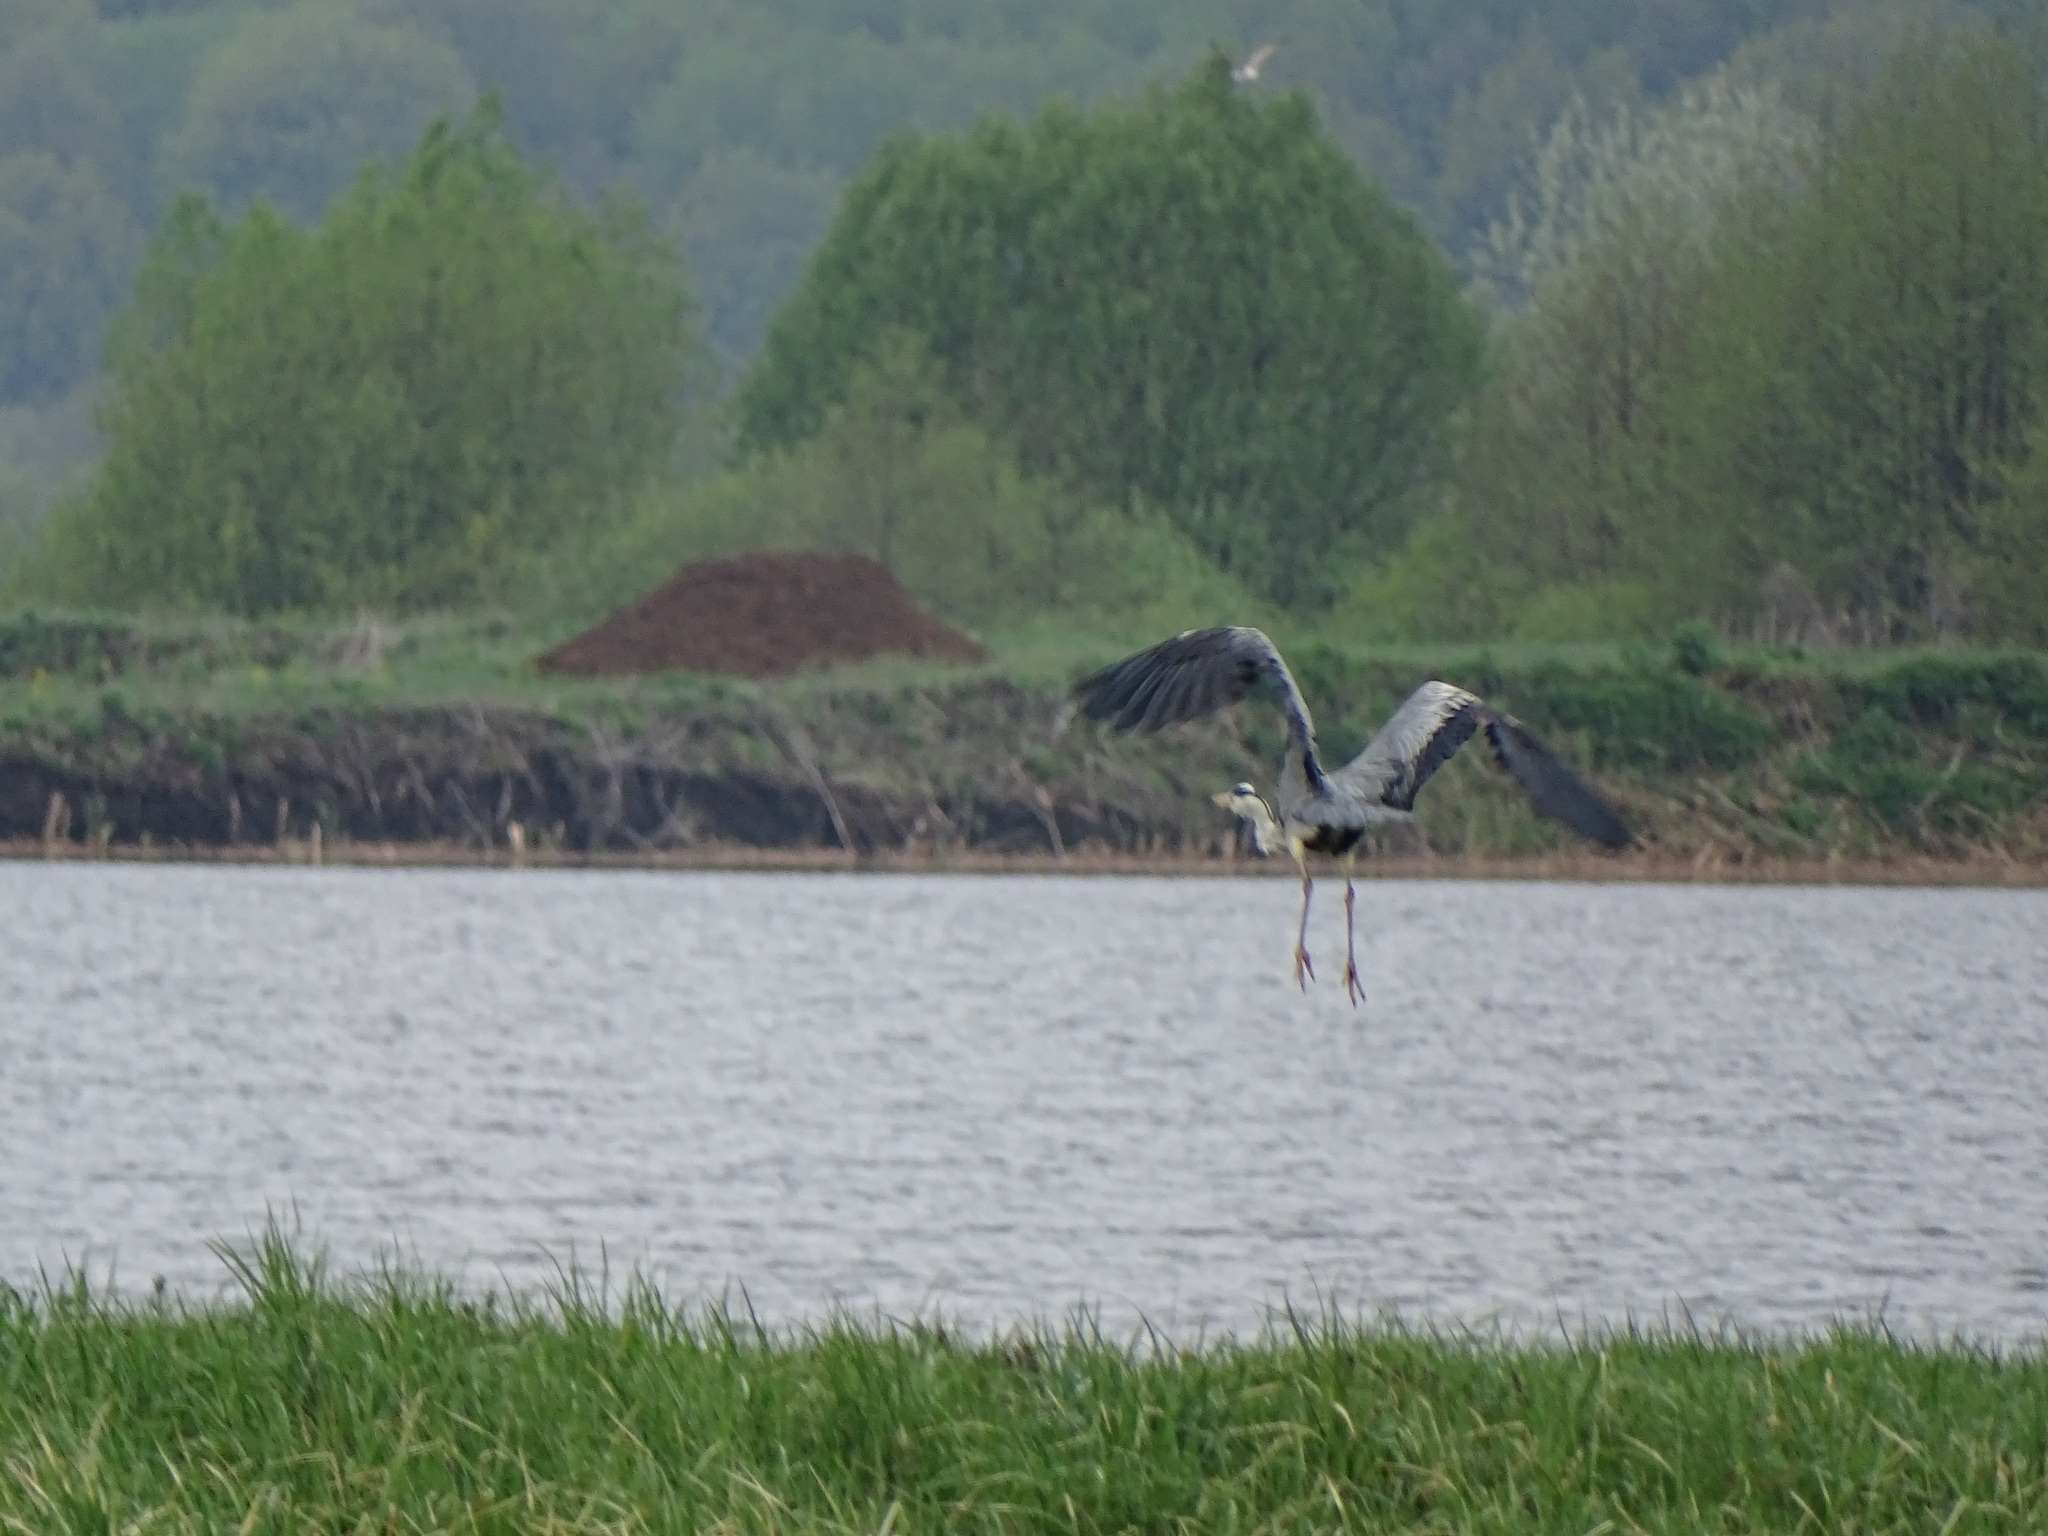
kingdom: Animalia
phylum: Chordata
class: Aves
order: Pelecaniformes
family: Ardeidae
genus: Ardea
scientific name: Ardea cinerea
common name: Grey heron
